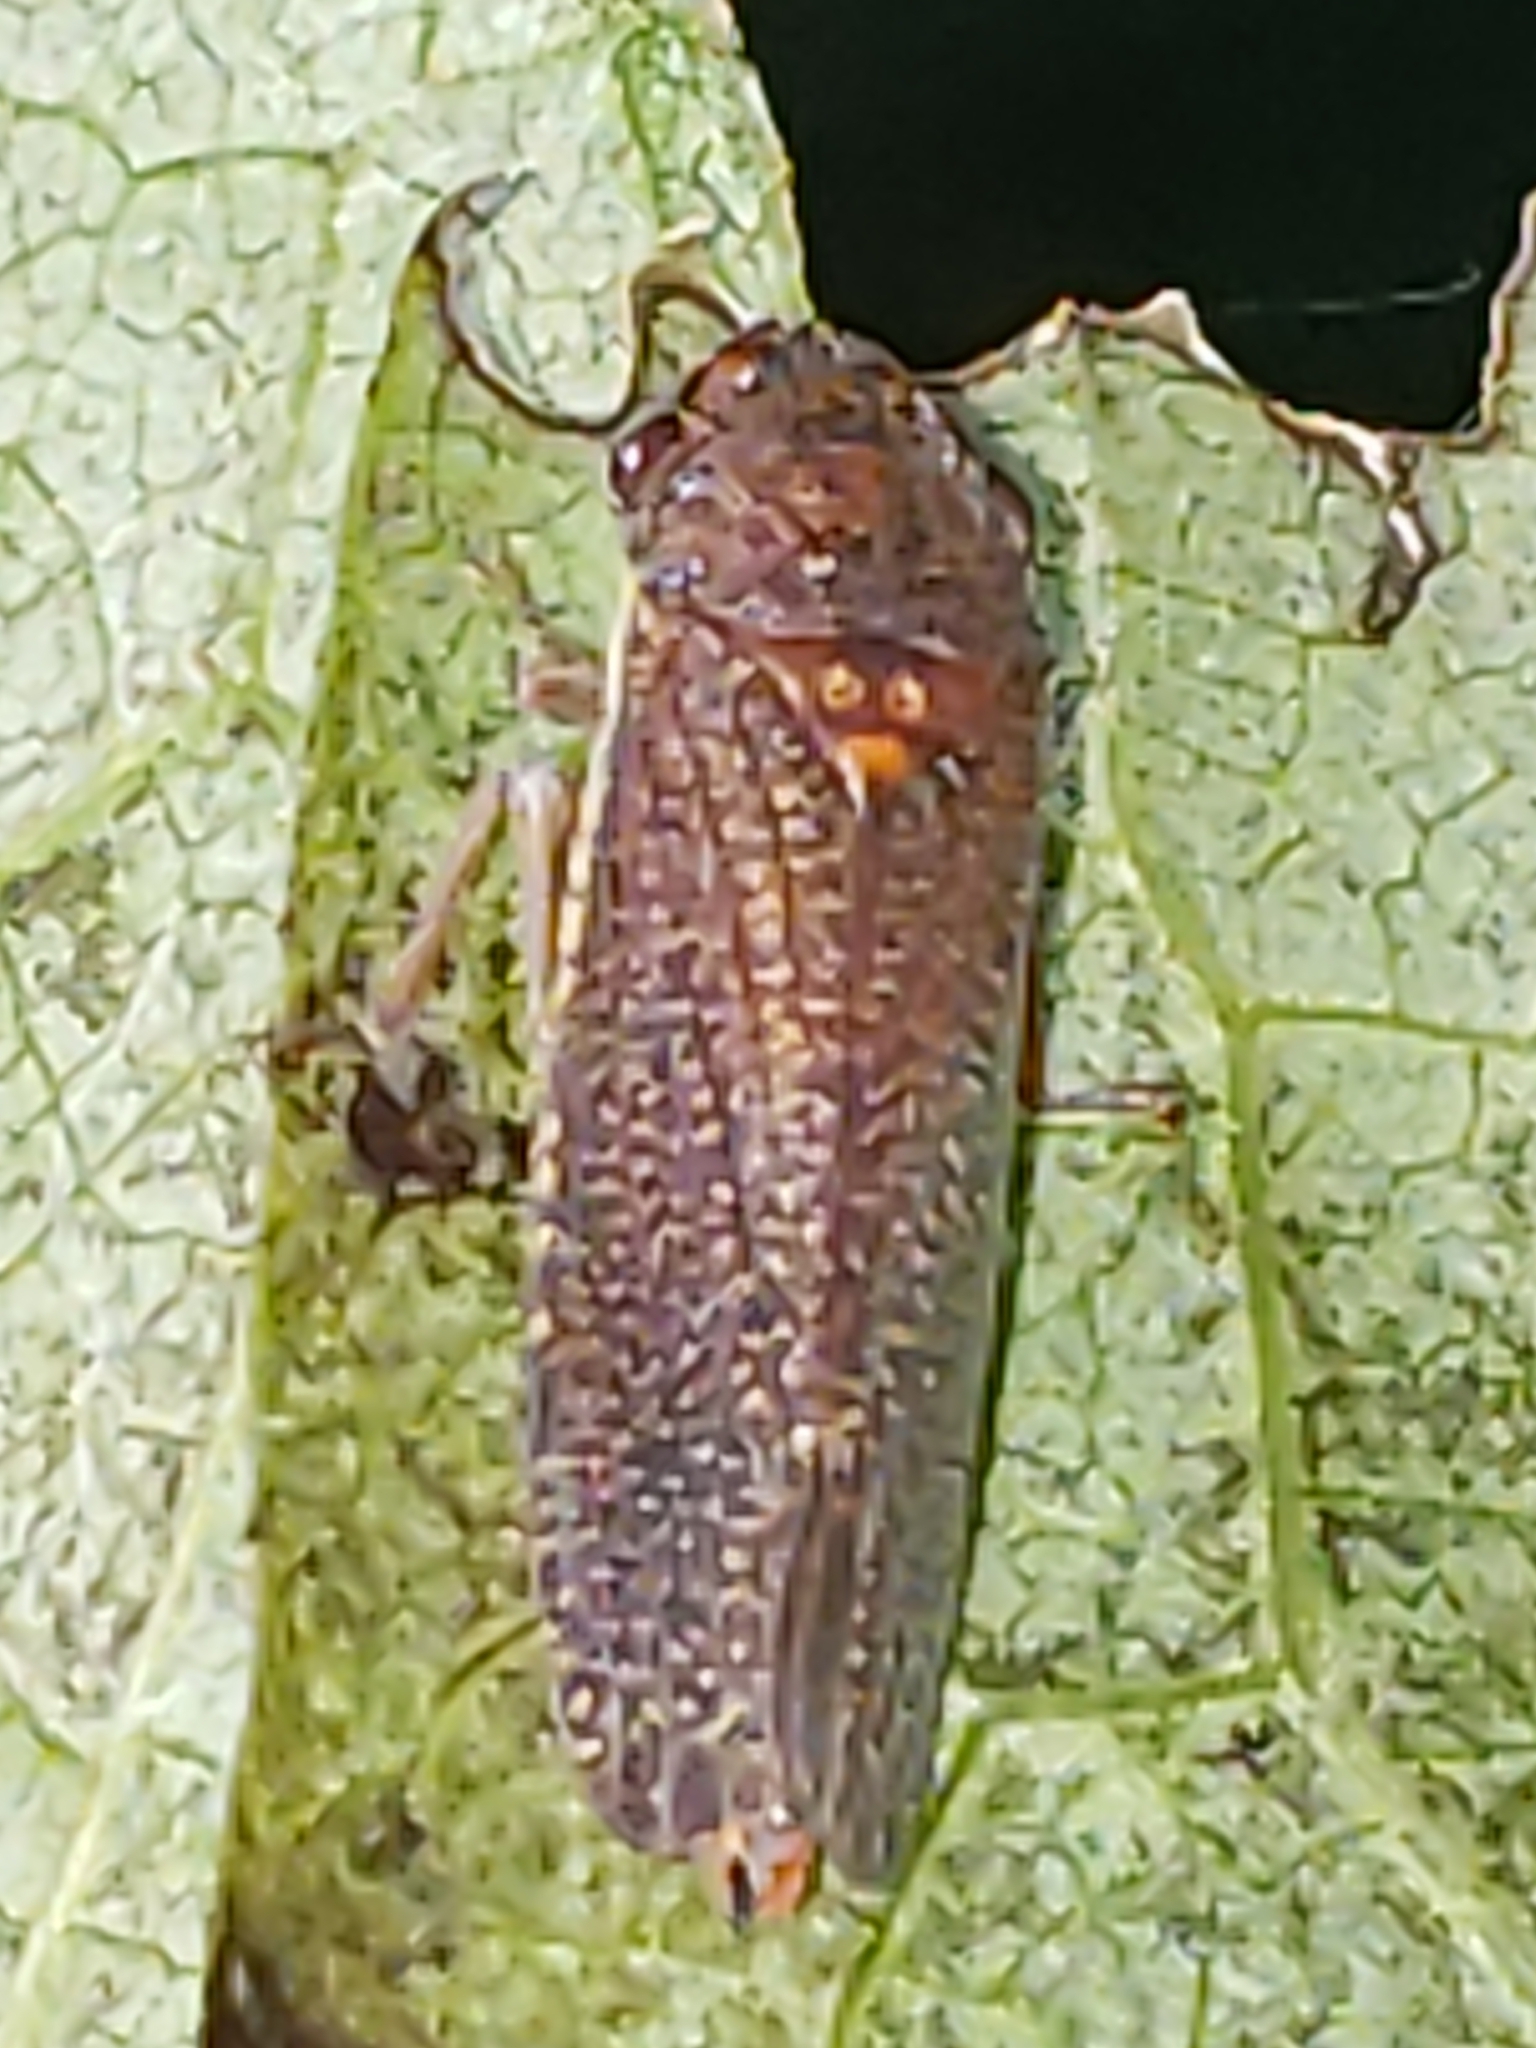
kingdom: Animalia
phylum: Arthropoda
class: Insecta
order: Hemiptera
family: Cicadellidae
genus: Paraulacizes
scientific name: Paraulacizes irrorata
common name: Speckled sharpshooter
